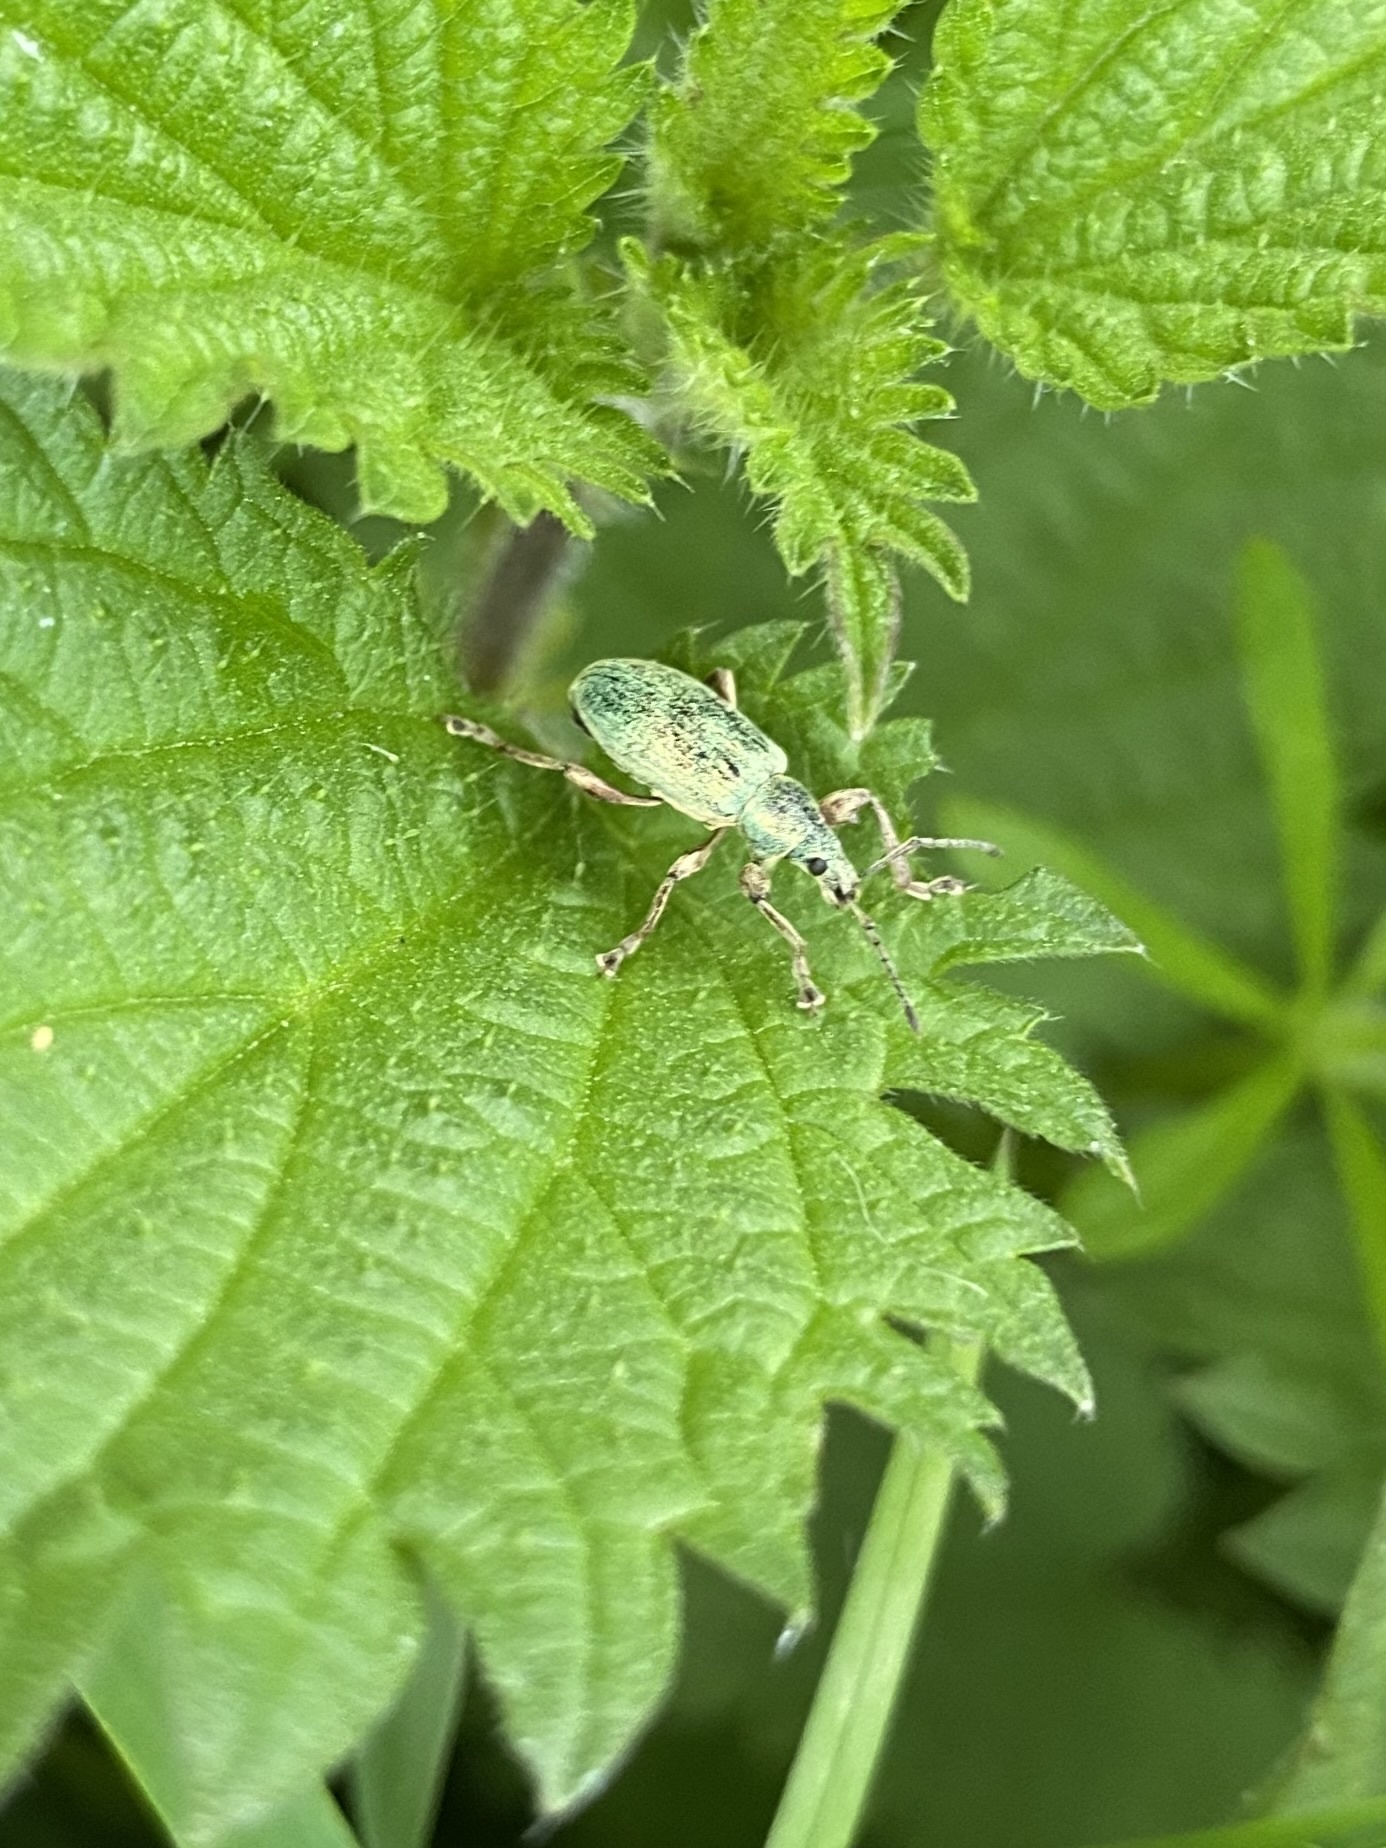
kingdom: Animalia
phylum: Arthropoda
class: Insecta
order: Coleoptera
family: Curculionidae
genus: Phyllobius
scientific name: Phyllobius pomaceus
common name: Green nettle weevil
